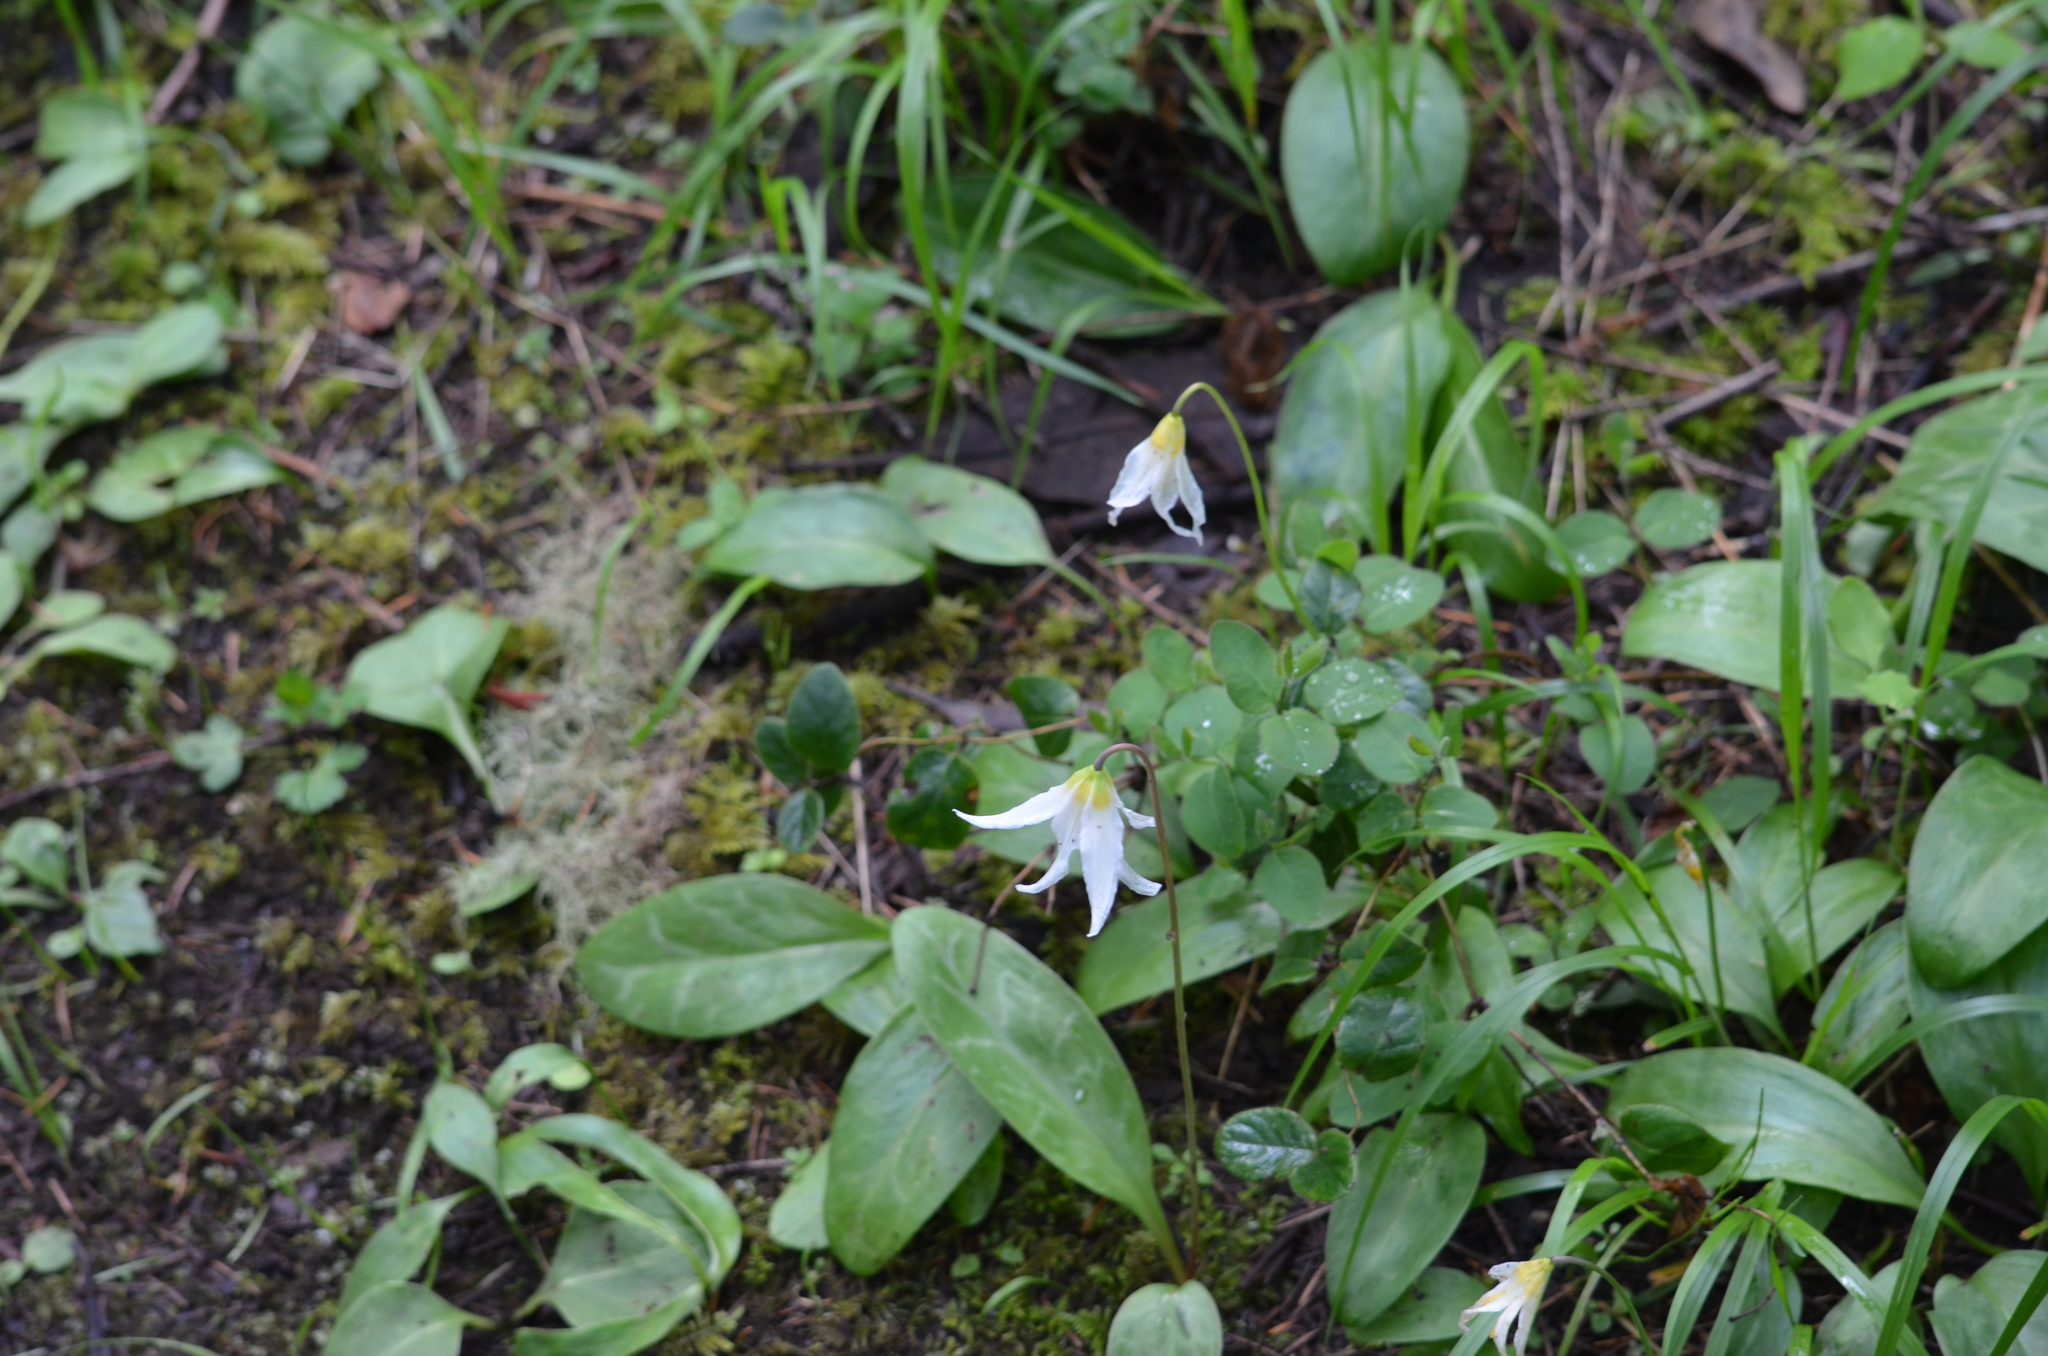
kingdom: Plantae
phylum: Tracheophyta
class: Liliopsida
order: Liliales
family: Liliaceae
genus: Erythronium
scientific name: Erythronium oregonum
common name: Giant adder's-tongue
